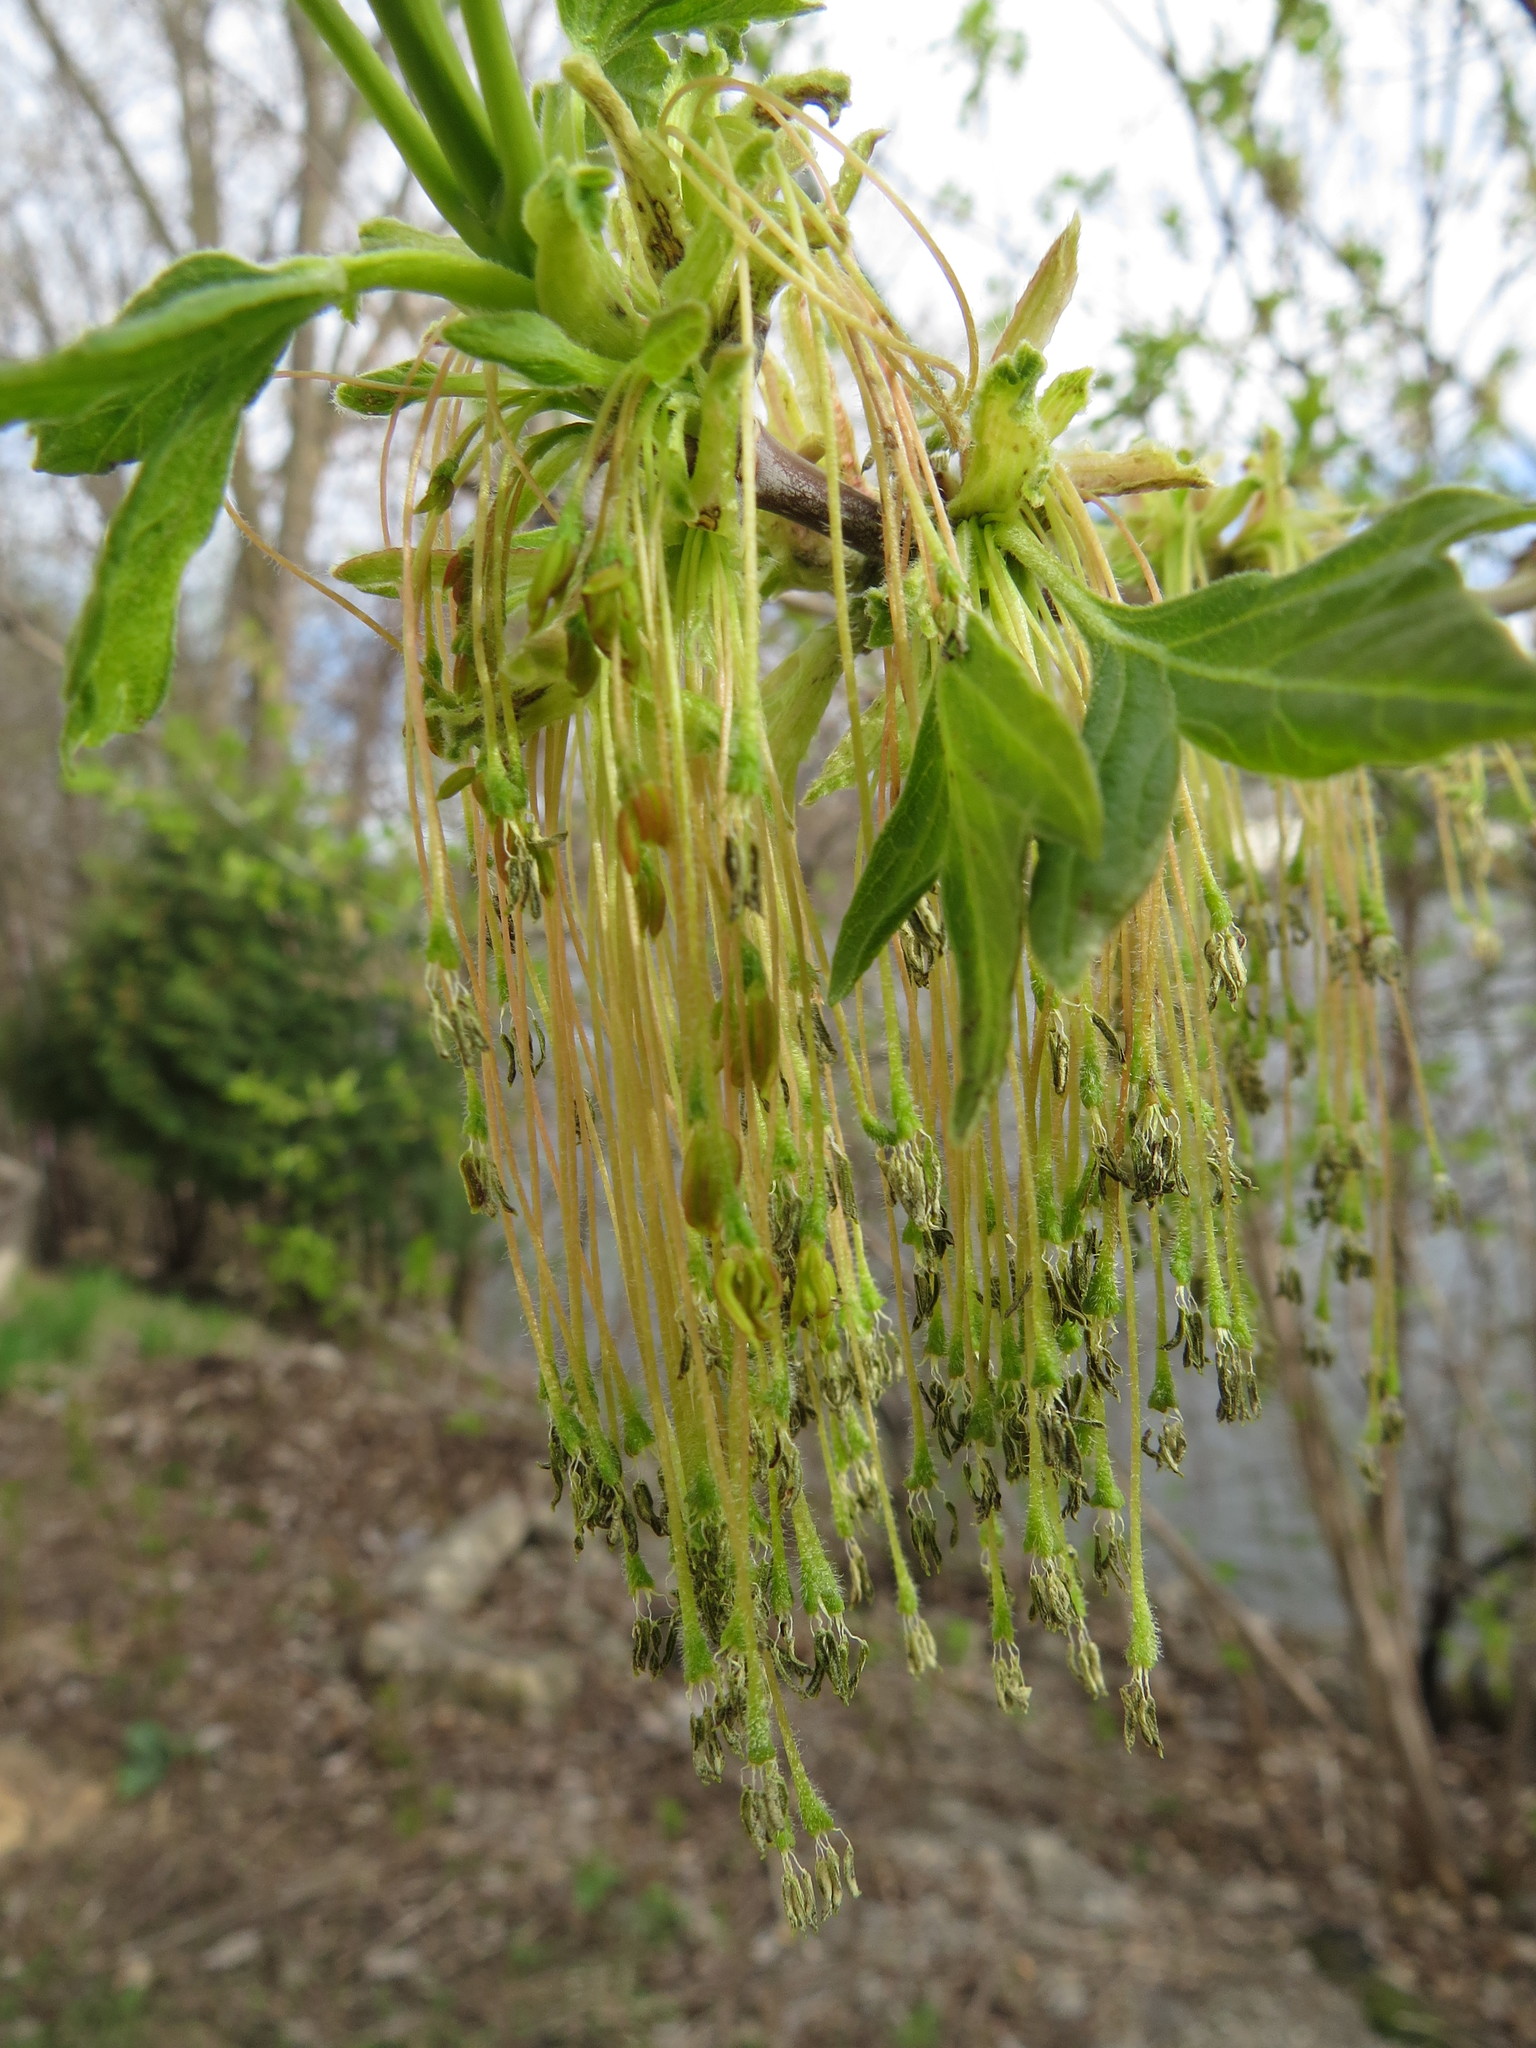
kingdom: Plantae
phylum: Tracheophyta
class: Magnoliopsida
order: Sapindales
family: Sapindaceae
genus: Acer
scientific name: Acer negundo
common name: Ashleaf maple
